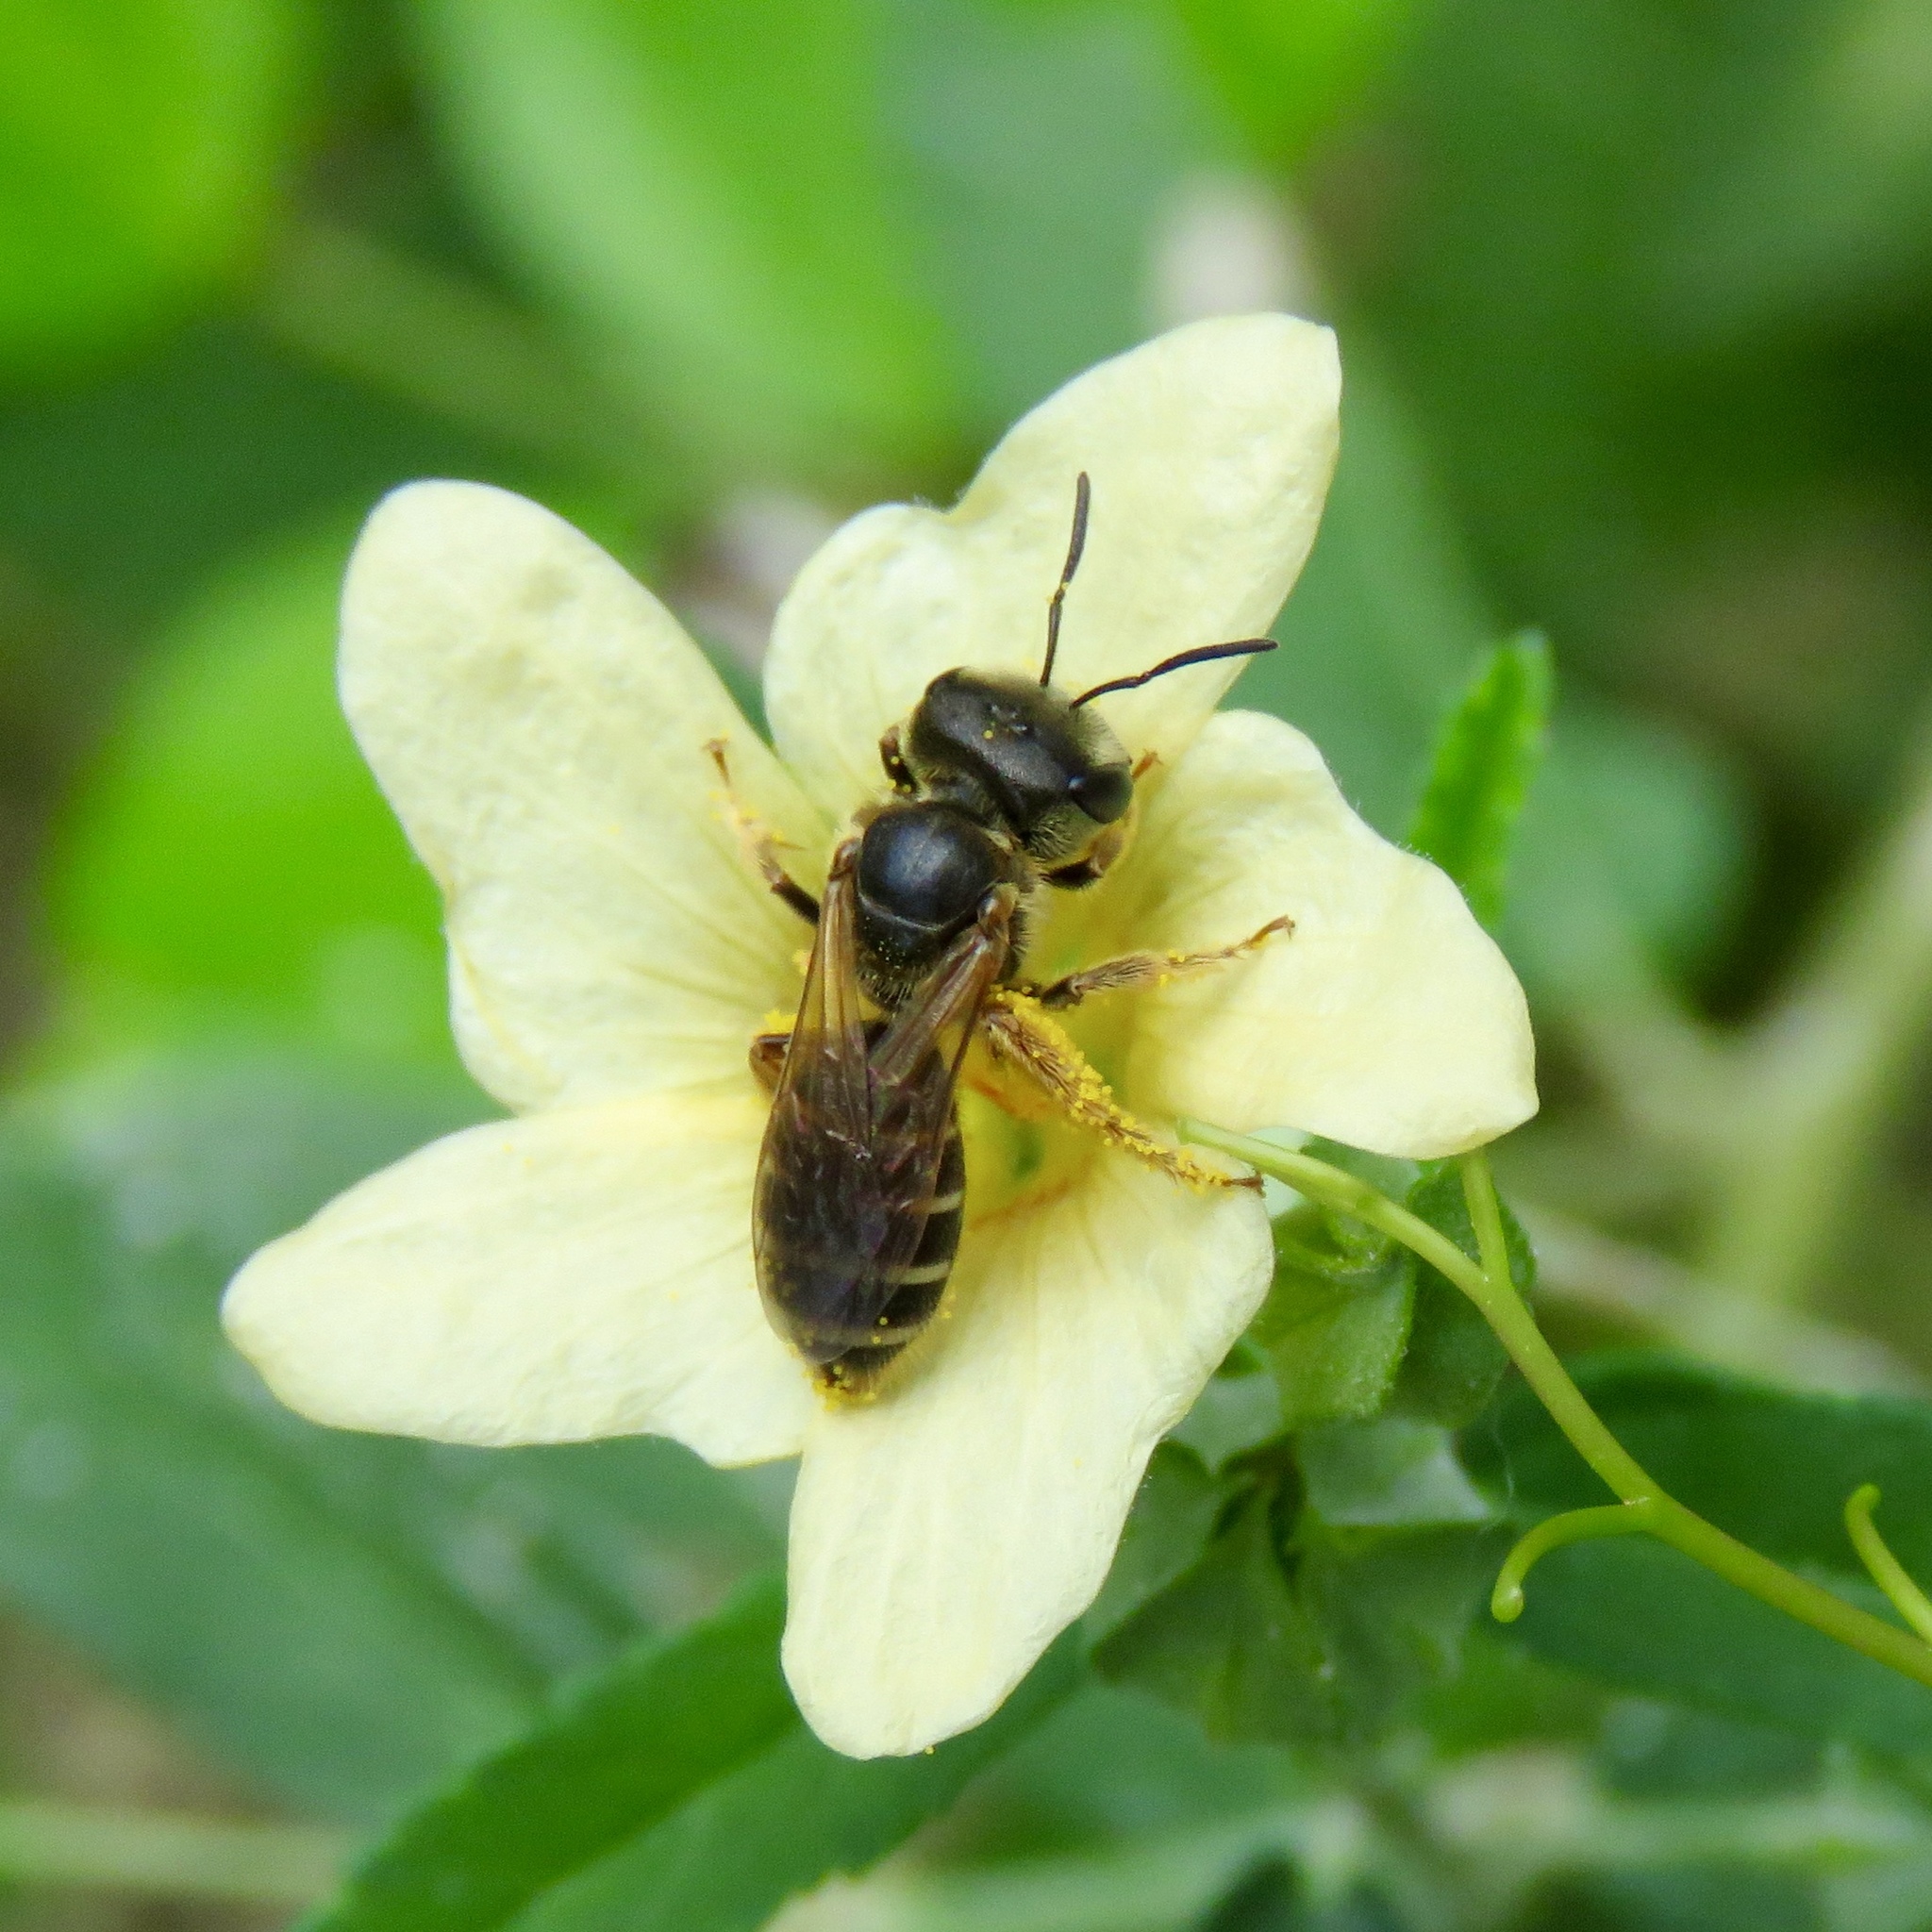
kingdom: Animalia
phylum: Arthropoda
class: Insecta
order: Hymenoptera
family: Halictidae
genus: Halictus
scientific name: Halictus ligatus
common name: Ligated furrow bee
